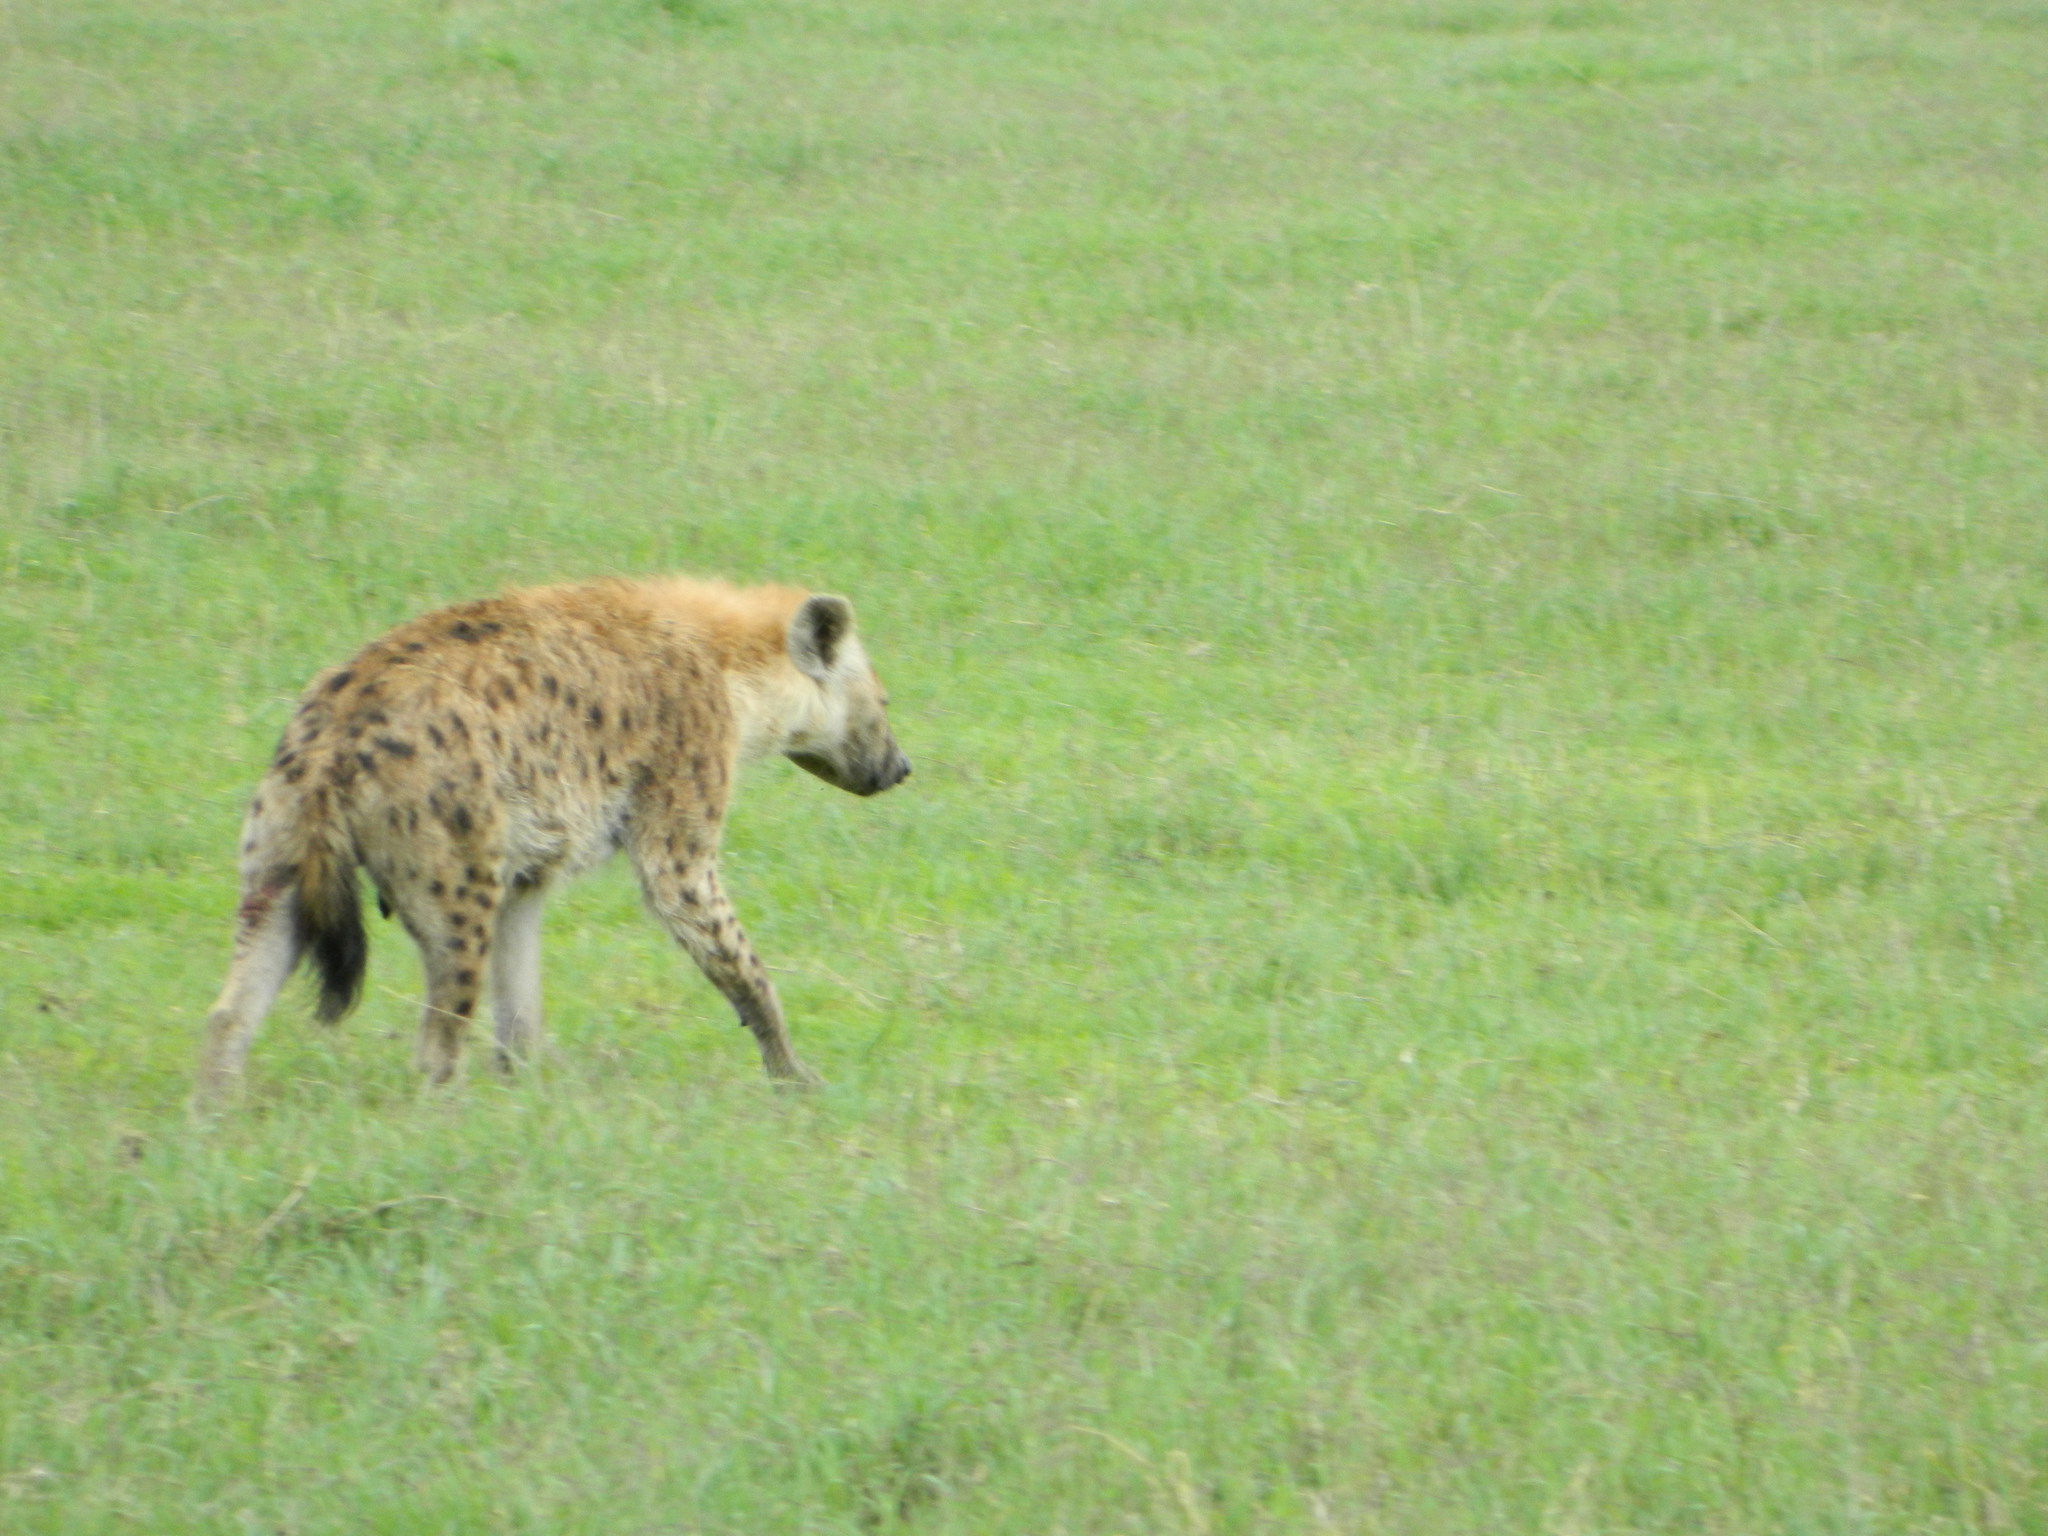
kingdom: Animalia
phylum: Chordata
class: Mammalia
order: Carnivora
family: Hyaenidae
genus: Crocuta
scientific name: Crocuta crocuta
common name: Spotted hyaena
